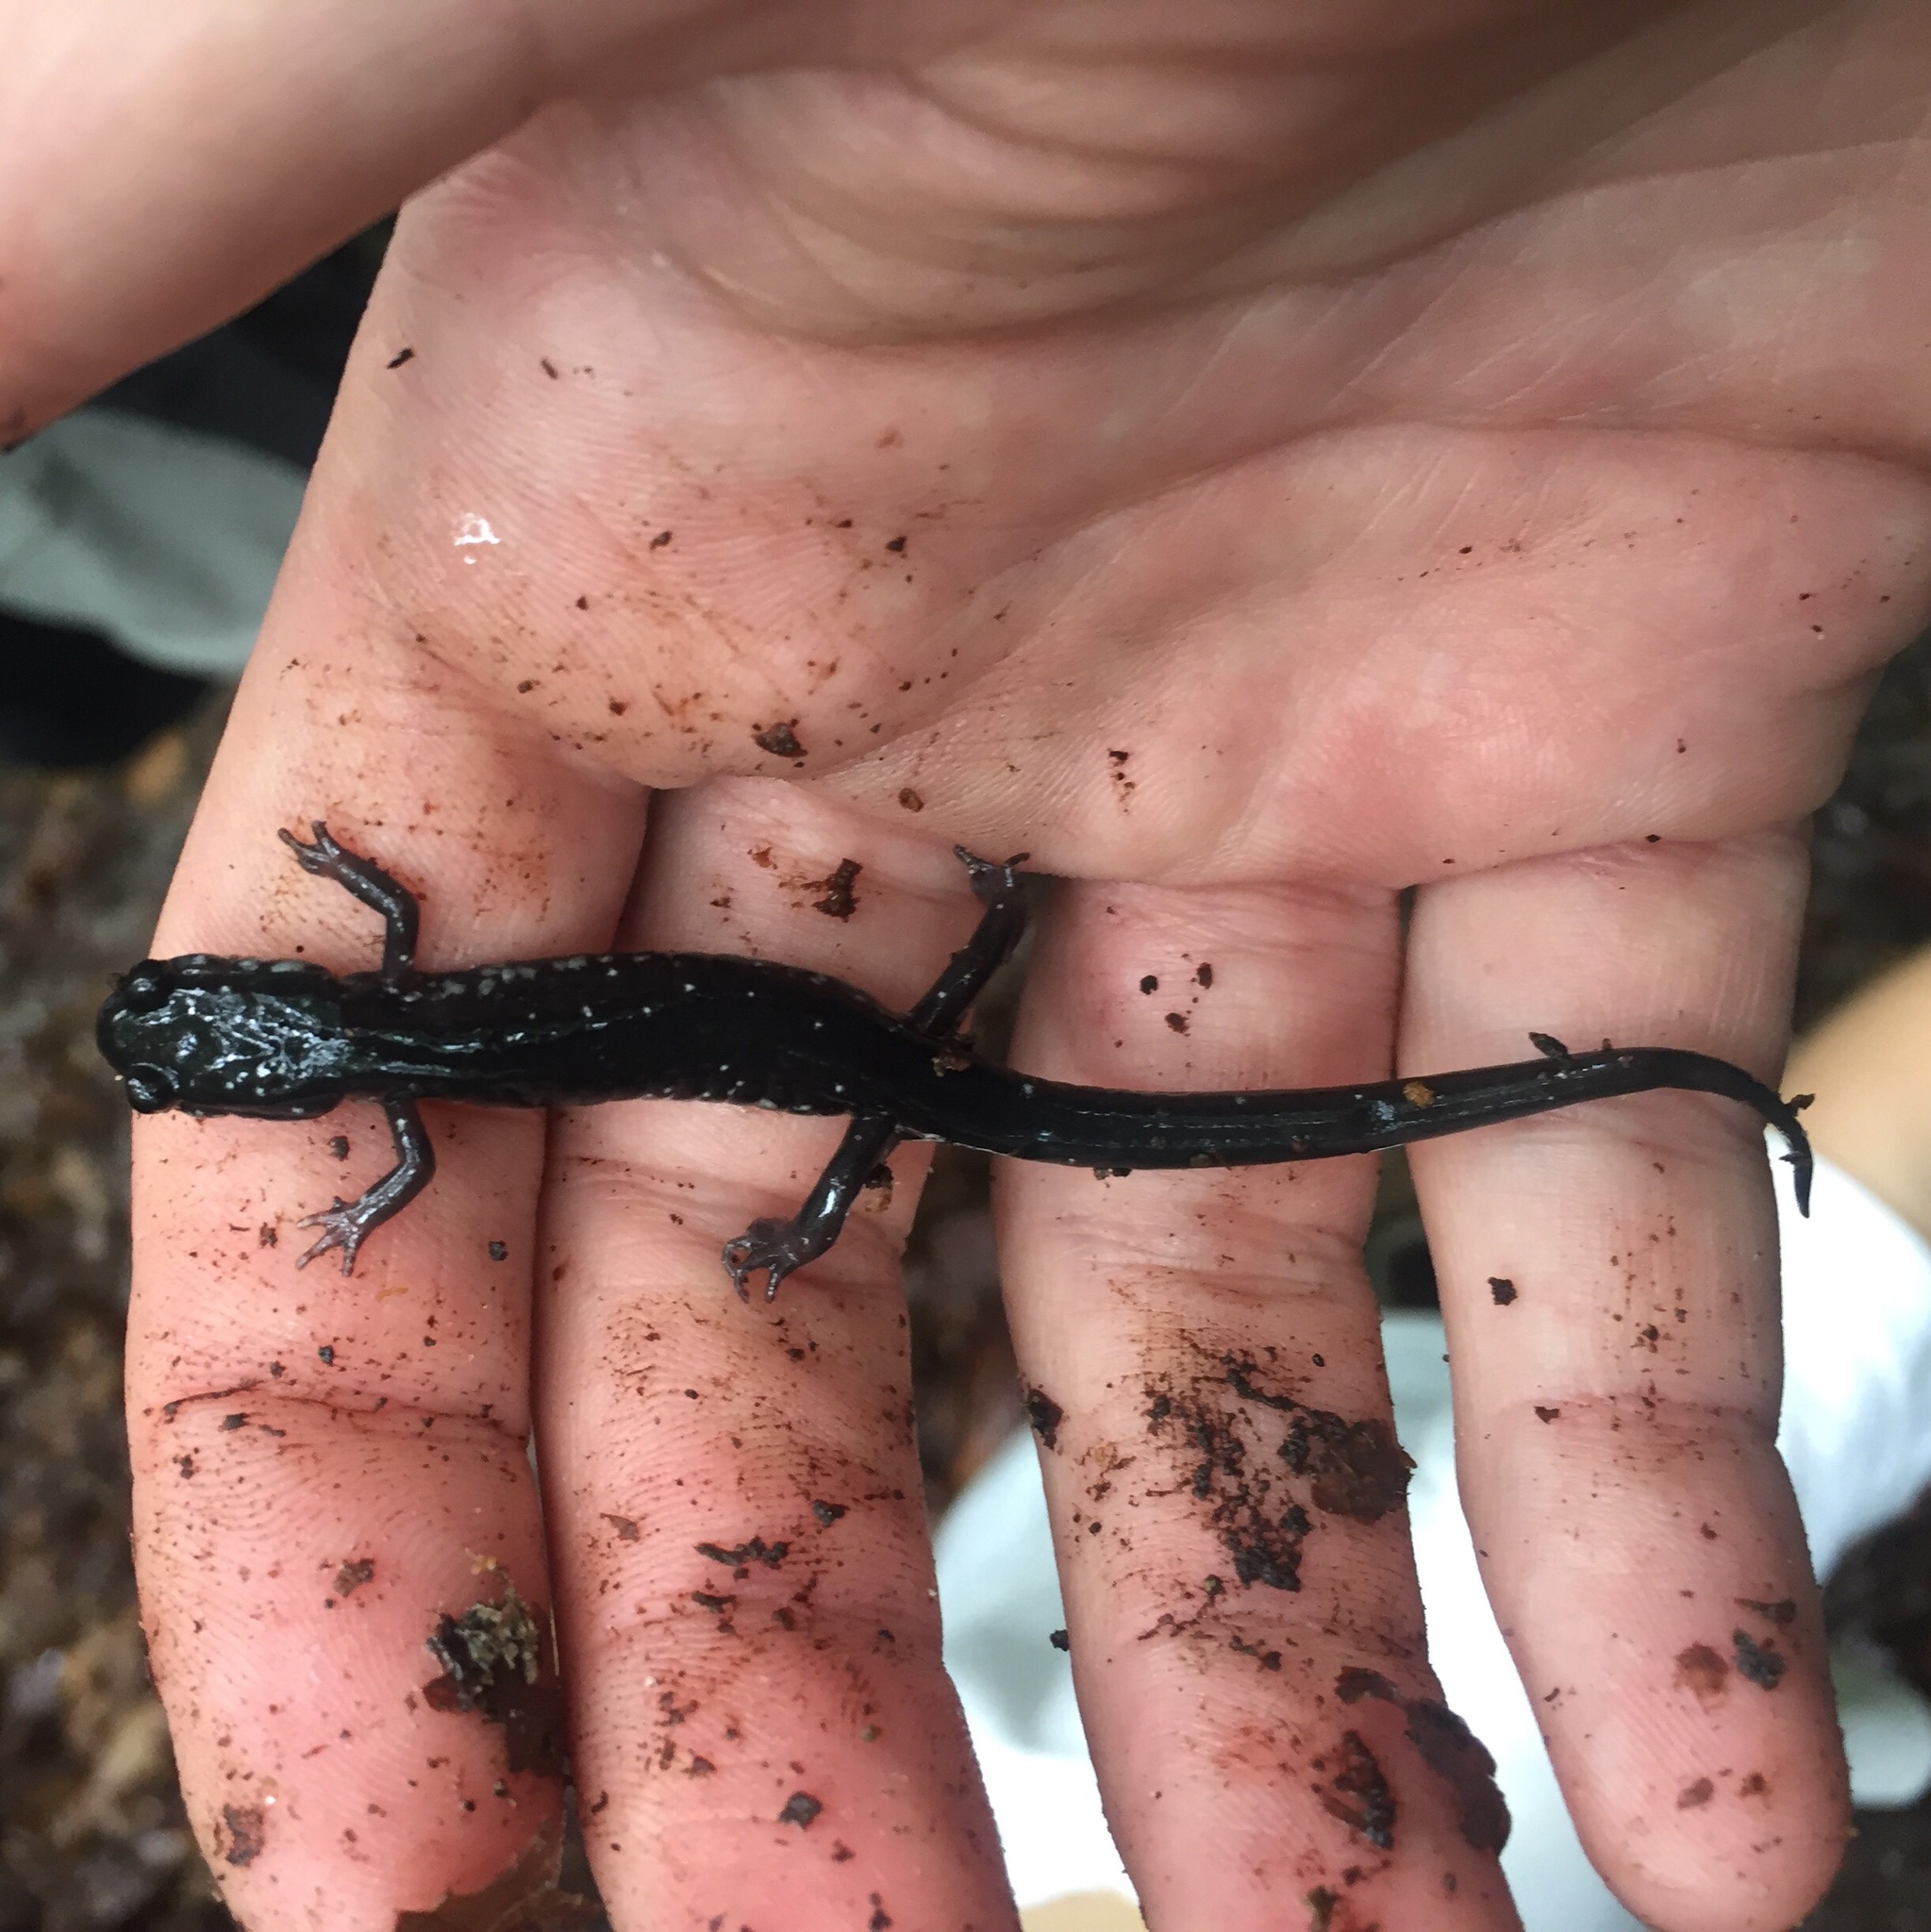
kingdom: Animalia
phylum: Chordata
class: Amphibia
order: Caudata
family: Plethodontidae
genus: Plethodon
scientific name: Plethodon cylindraceus
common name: White-spotted slimy salamander
